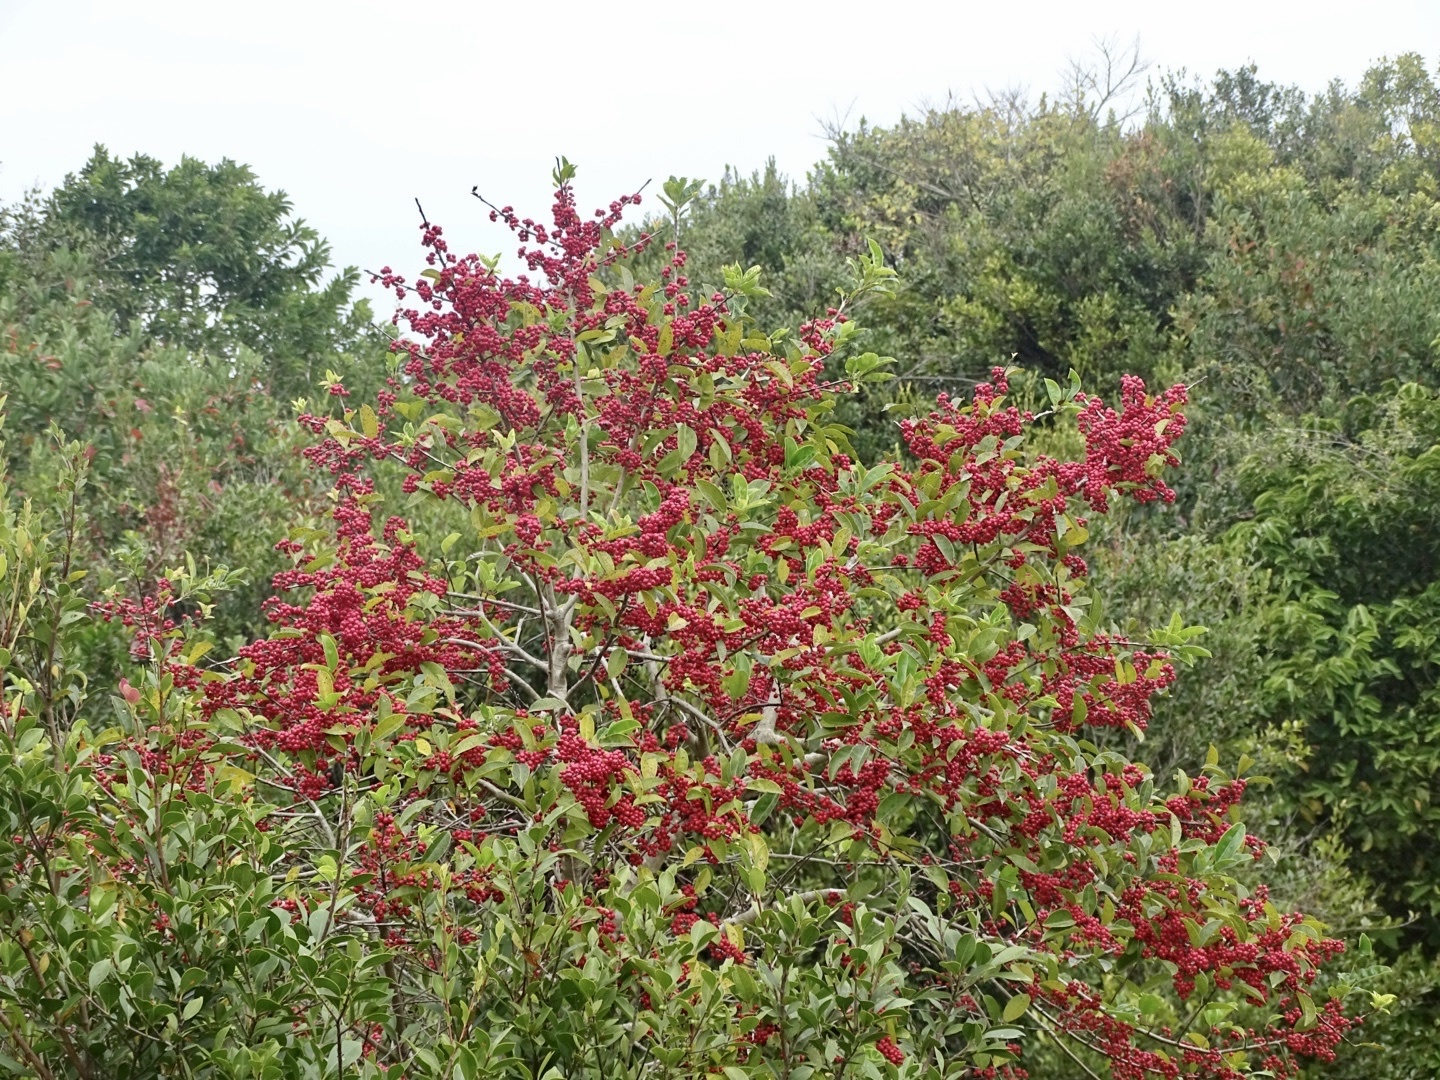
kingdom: Plantae
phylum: Tracheophyta
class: Magnoliopsida
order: Aquifoliales
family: Aquifoliaceae
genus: Ilex
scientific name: Ilex rotunda
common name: Kurogane holly
